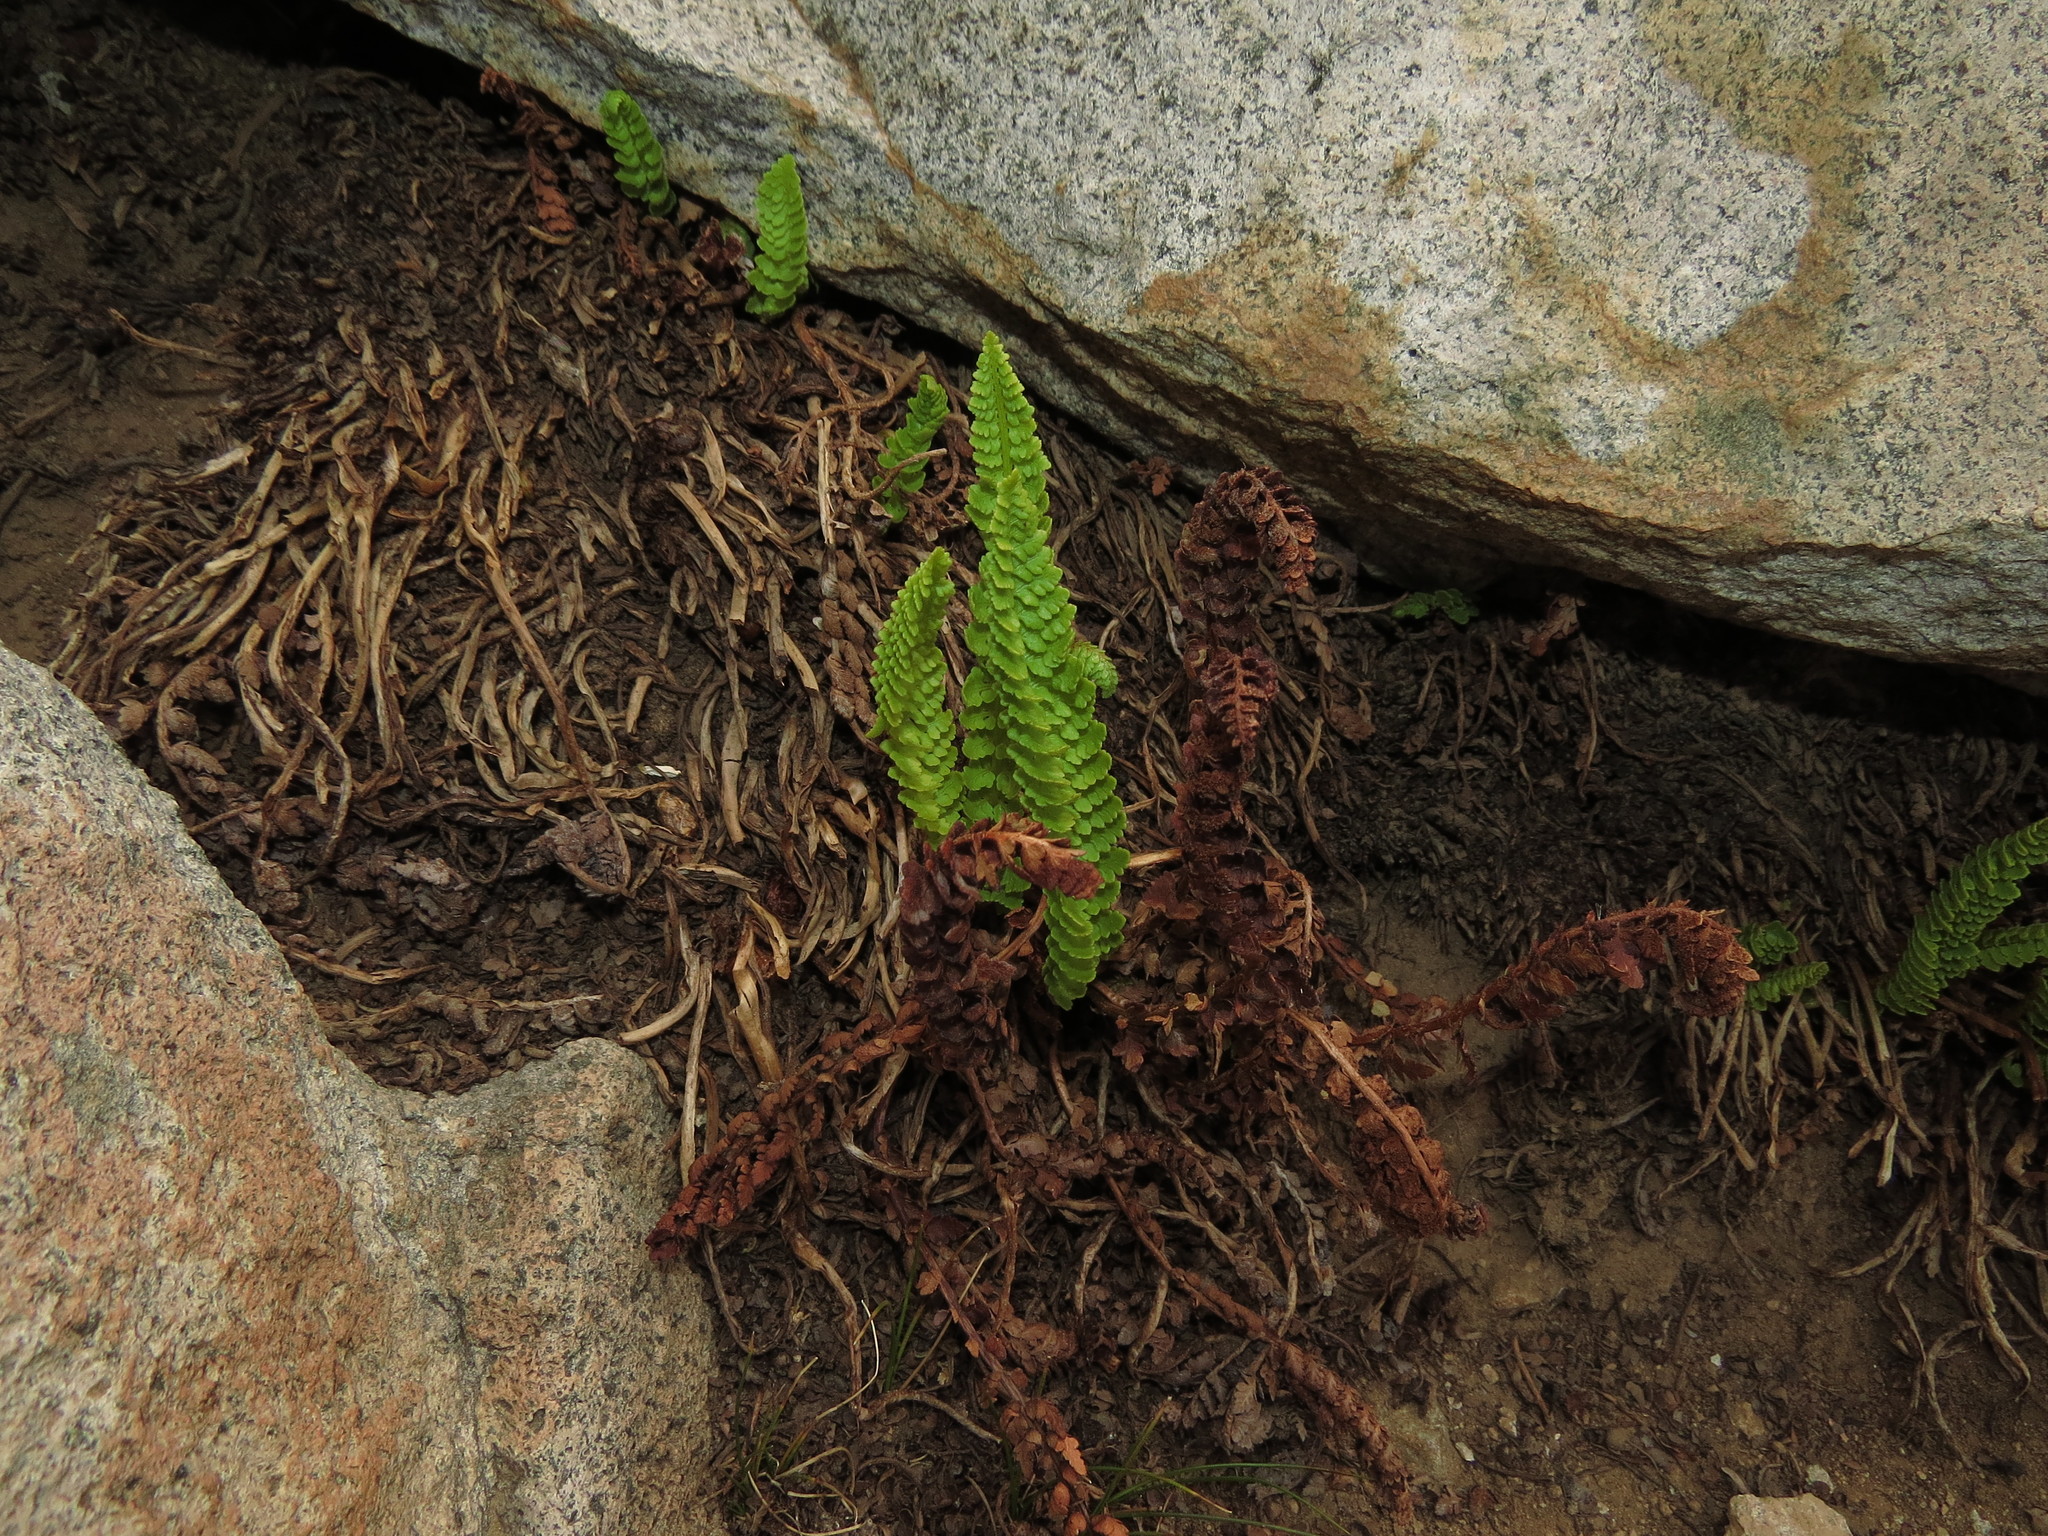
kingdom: Plantae
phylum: Tracheophyta
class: Polypodiopsida
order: Polypodiales
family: Dryopteridaceae
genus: Polystichum
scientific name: Polystichum andinum
